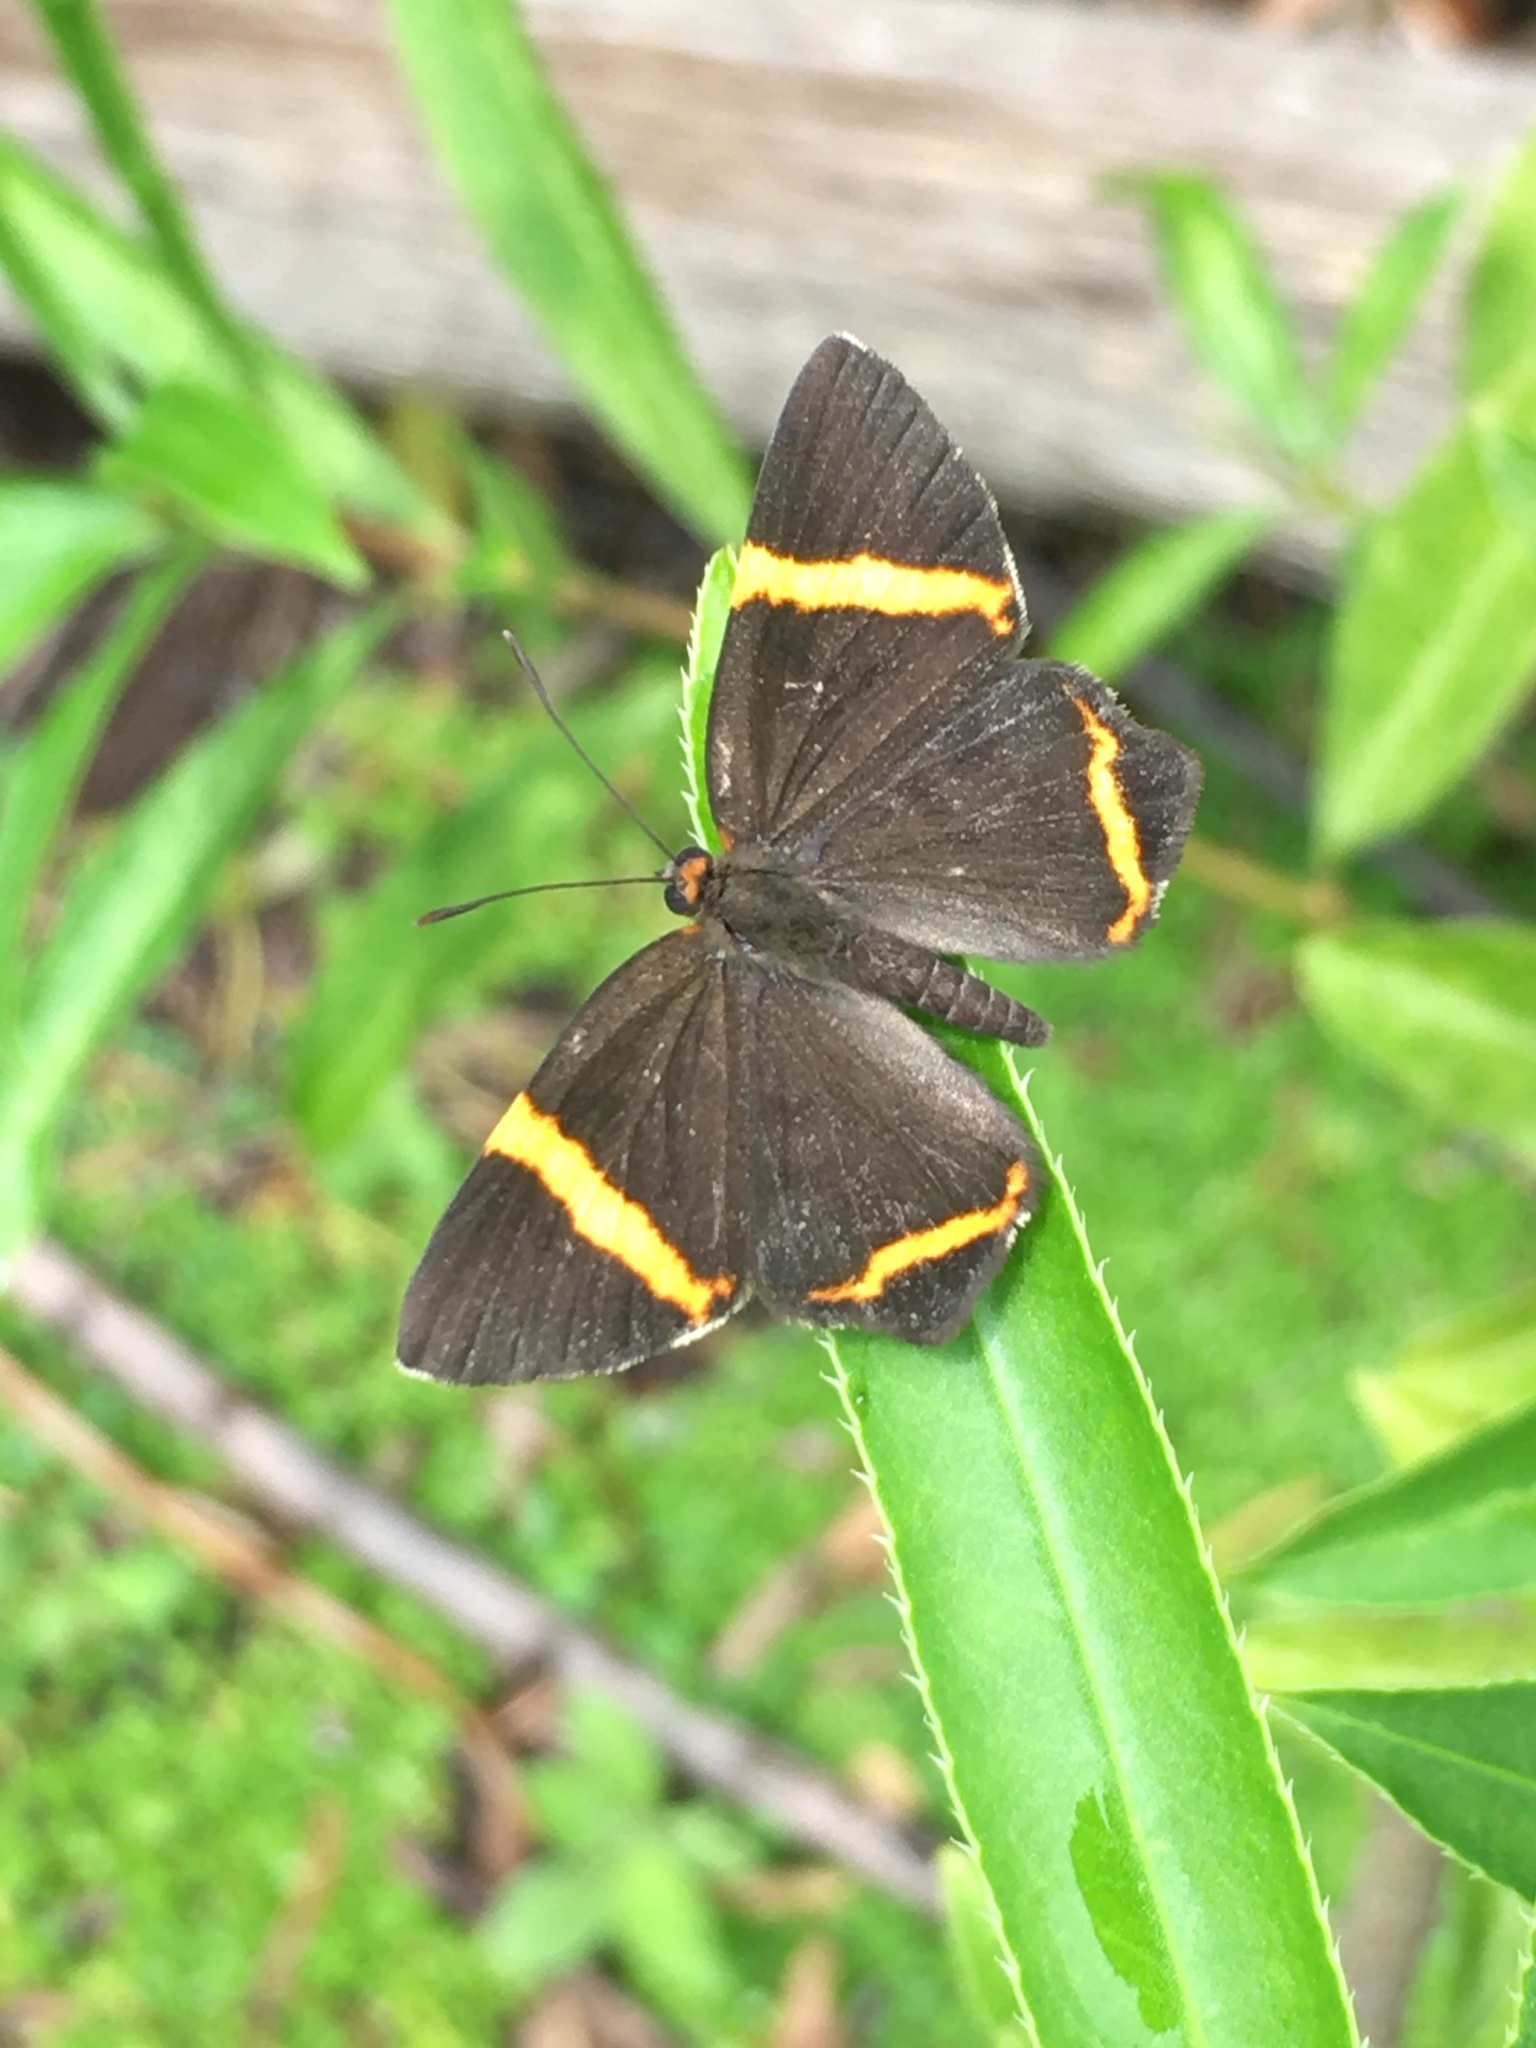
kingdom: Animalia
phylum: Arthropoda
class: Insecta
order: Lepidoptera
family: Riodinidae
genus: Riodina
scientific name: Riodina lysippoides
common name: Little dancer metalmark
